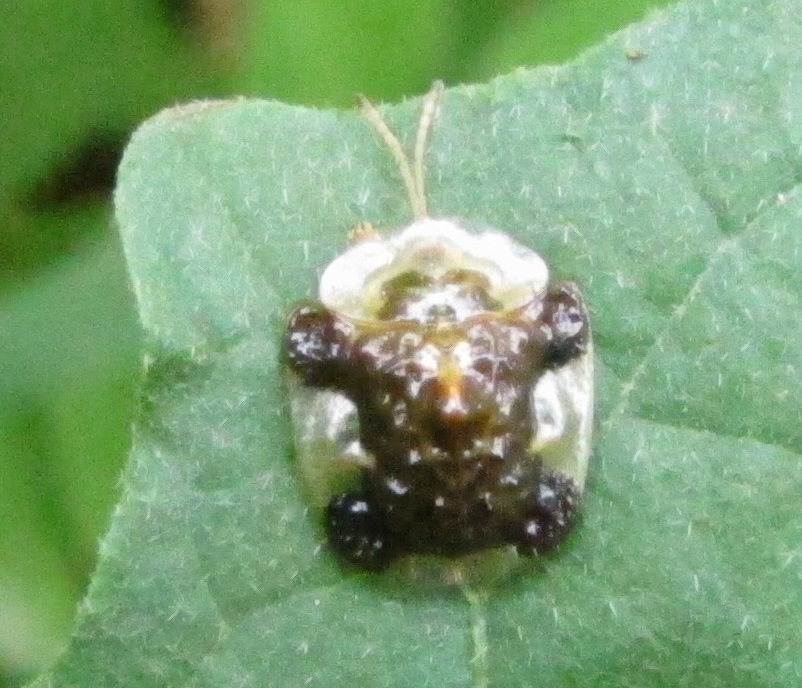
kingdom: Animalia
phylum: Arthropoda
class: Insecta
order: Coleoptera
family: Chrysomelidae
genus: Helocassis
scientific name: Helocassis clavata
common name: Clavate tortoise beetle
